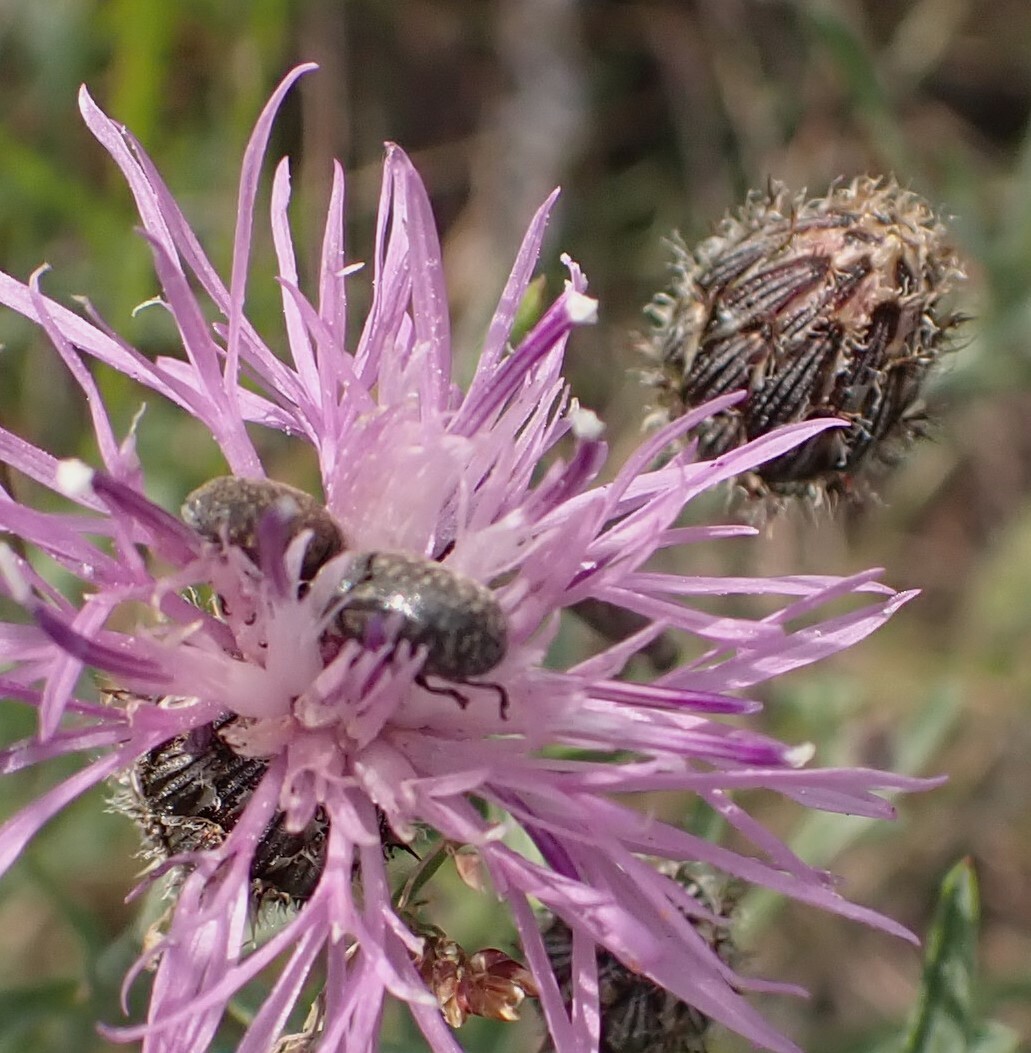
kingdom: Animalia
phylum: Arthropoda
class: Insecta
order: Coleoptera
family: Curculionidae
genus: Larinus
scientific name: Larinus obtusus
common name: Weevil
